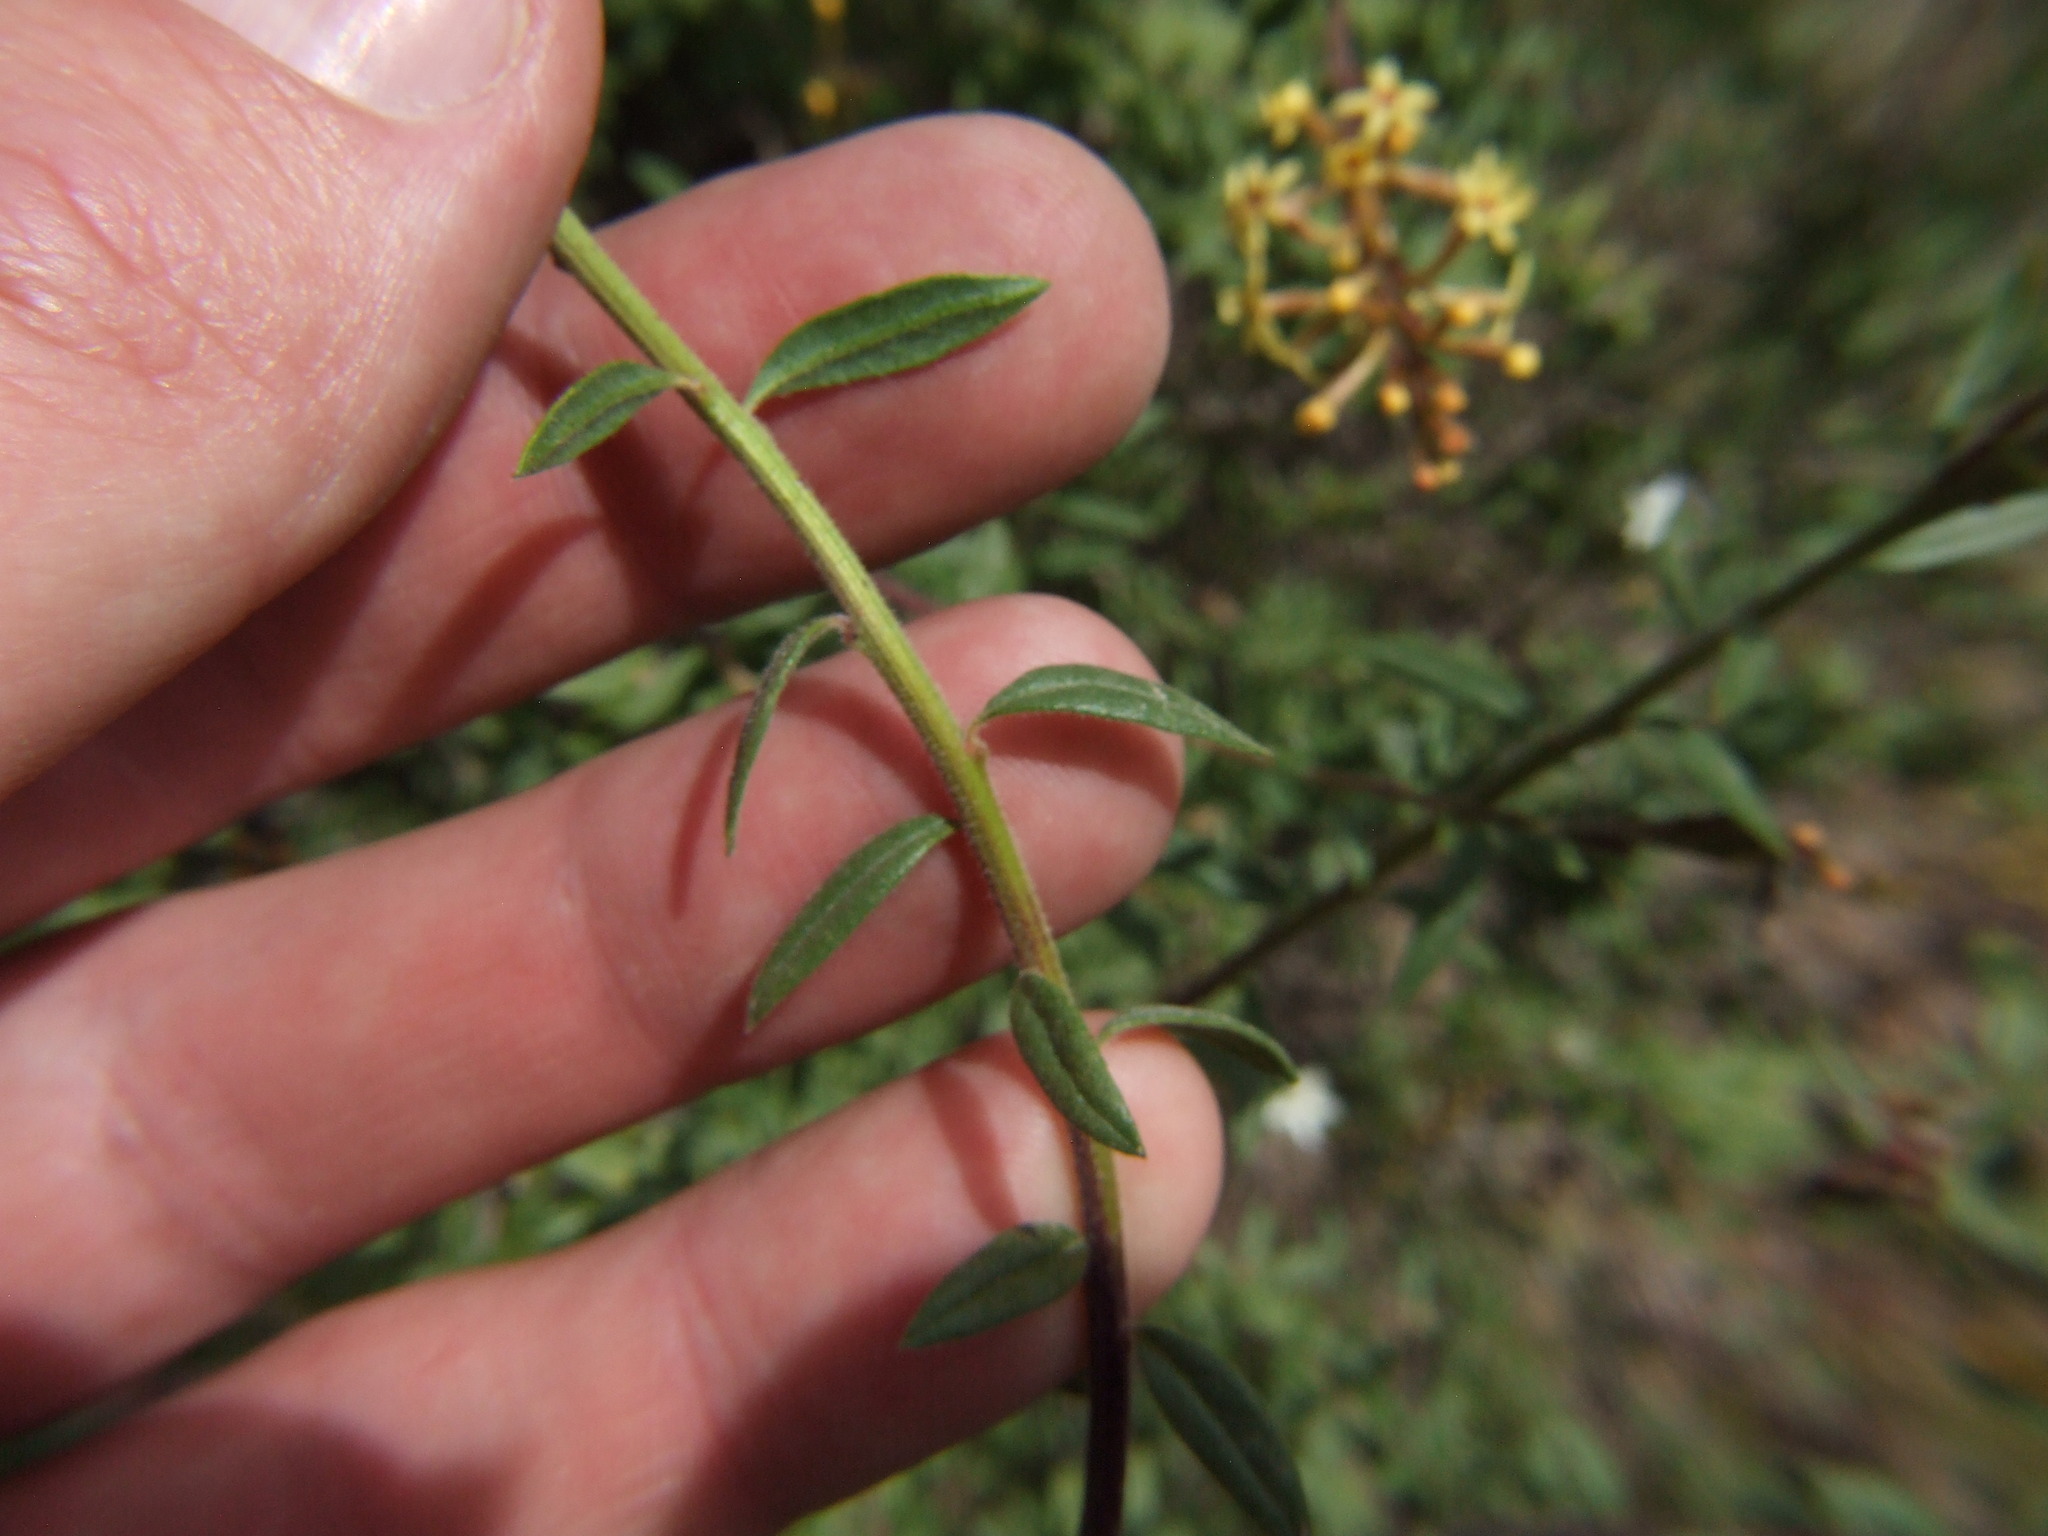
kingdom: Plantae
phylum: Tracheophyta
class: Magnoliopsida
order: Lamiales
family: Verbenaceae
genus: Mulguraea
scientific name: Mulguraea arequipensis
